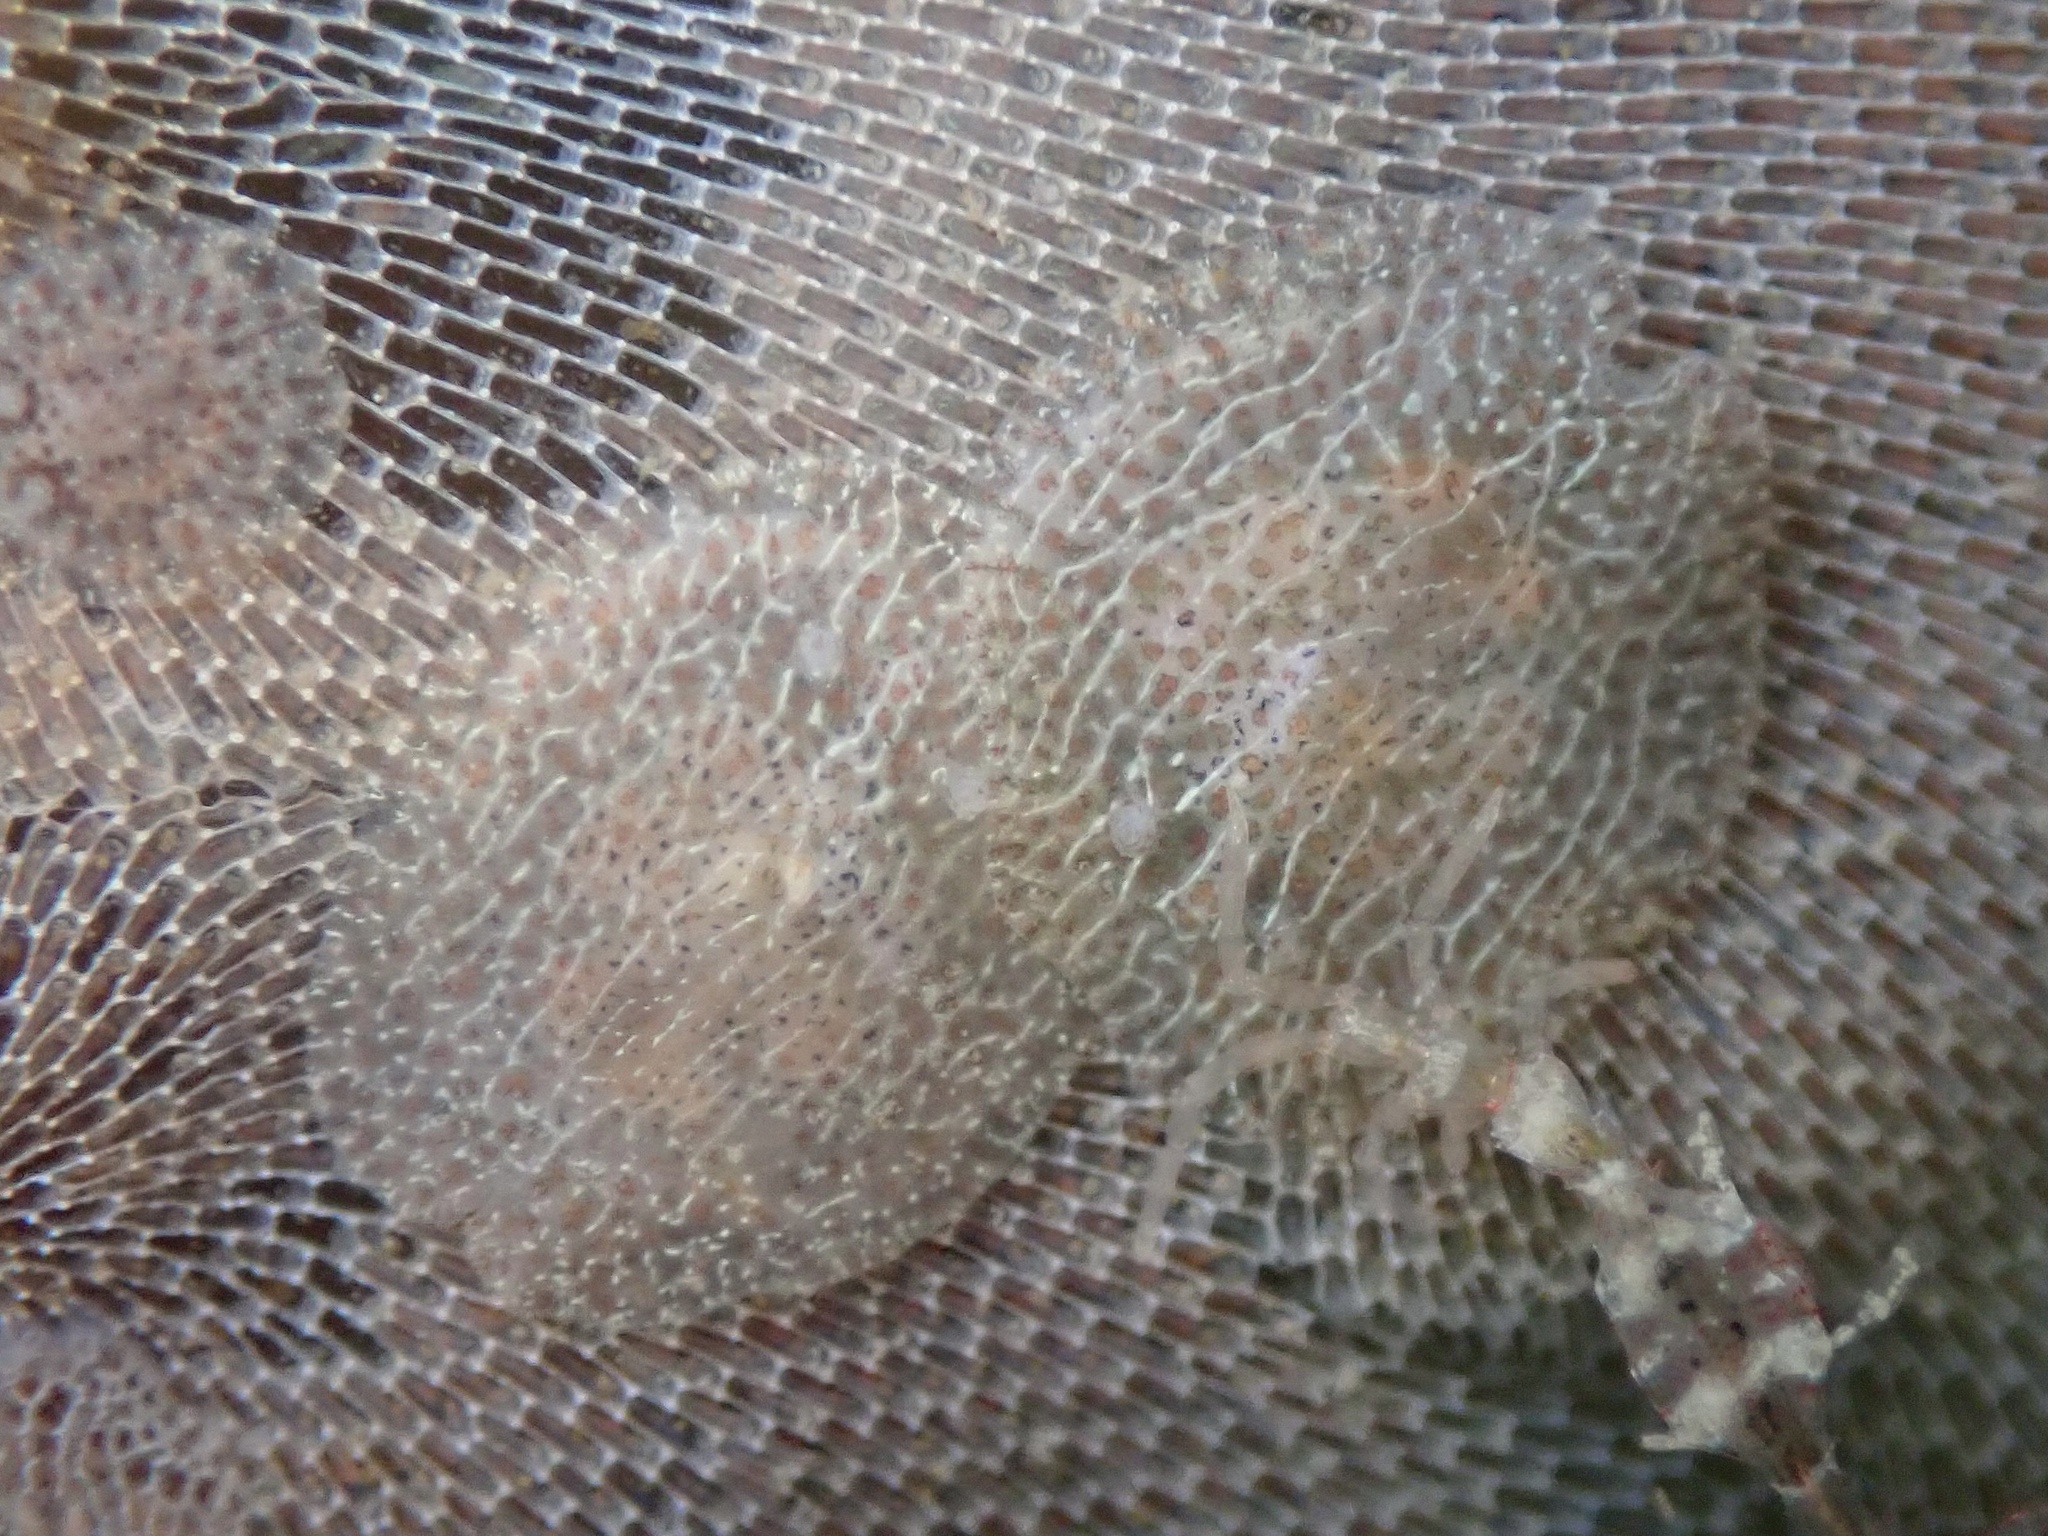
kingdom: Animalia
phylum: Mollusca
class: Gastropoda
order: Nudibranchia
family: Corambidae
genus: Corambe
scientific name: Corambe pacifica
